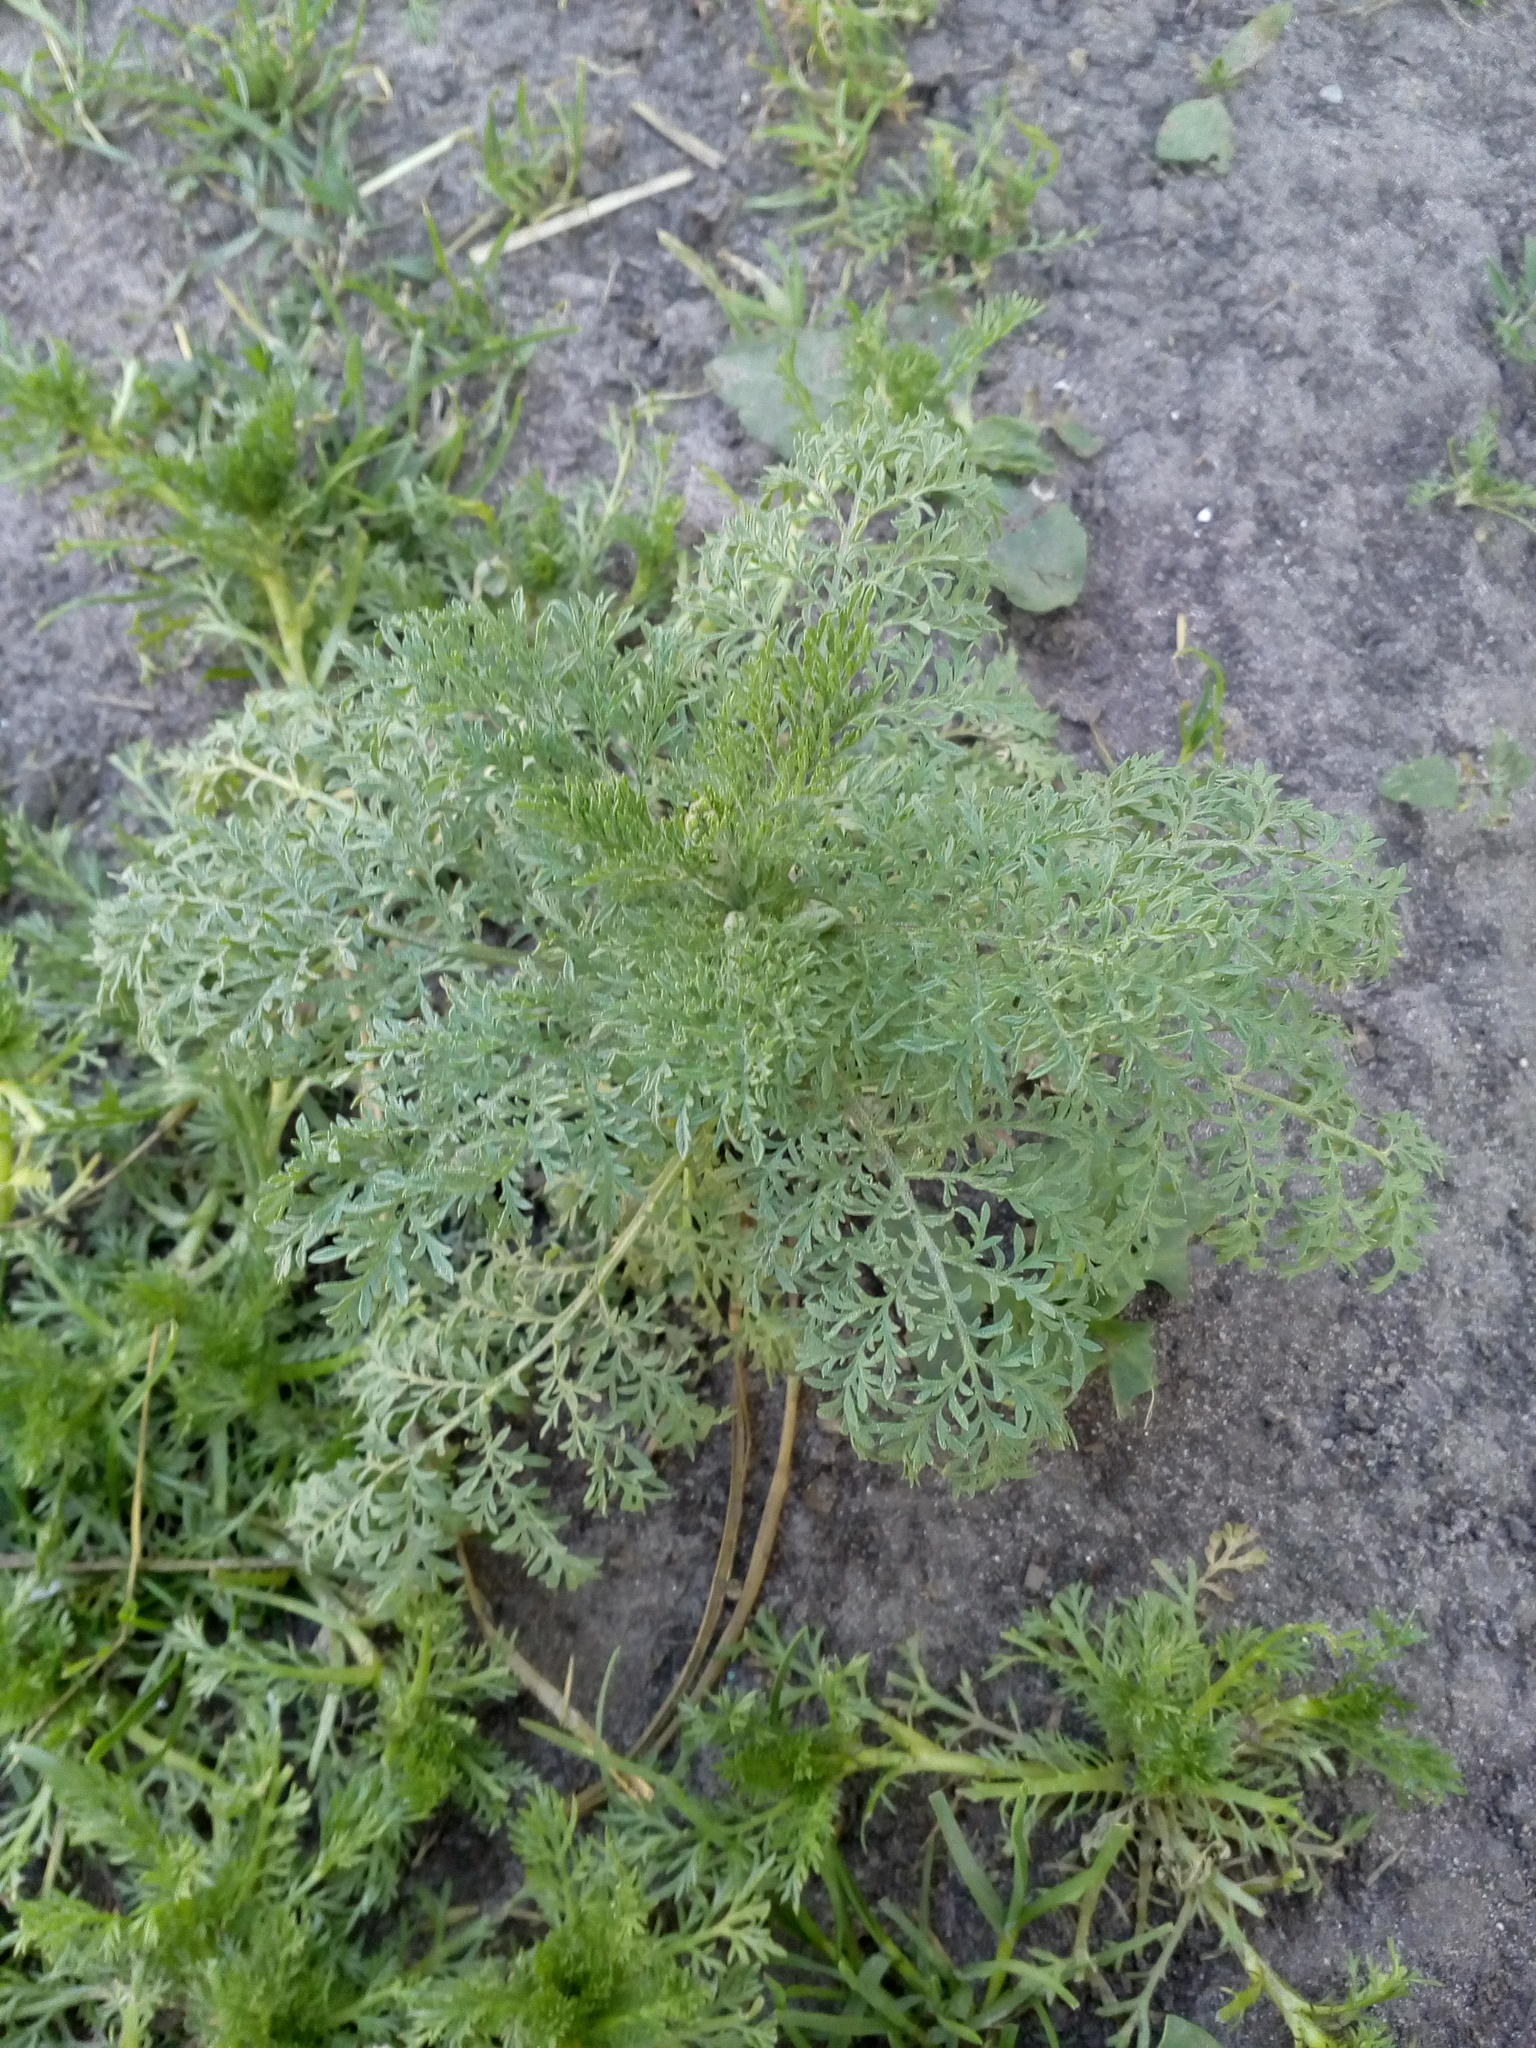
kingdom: Plantae
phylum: Tracheophyta
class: Magnoliopsida
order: Brassicales
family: Brassicaceae
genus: Descurainia
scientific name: Descurainia sophia
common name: Flixweed
